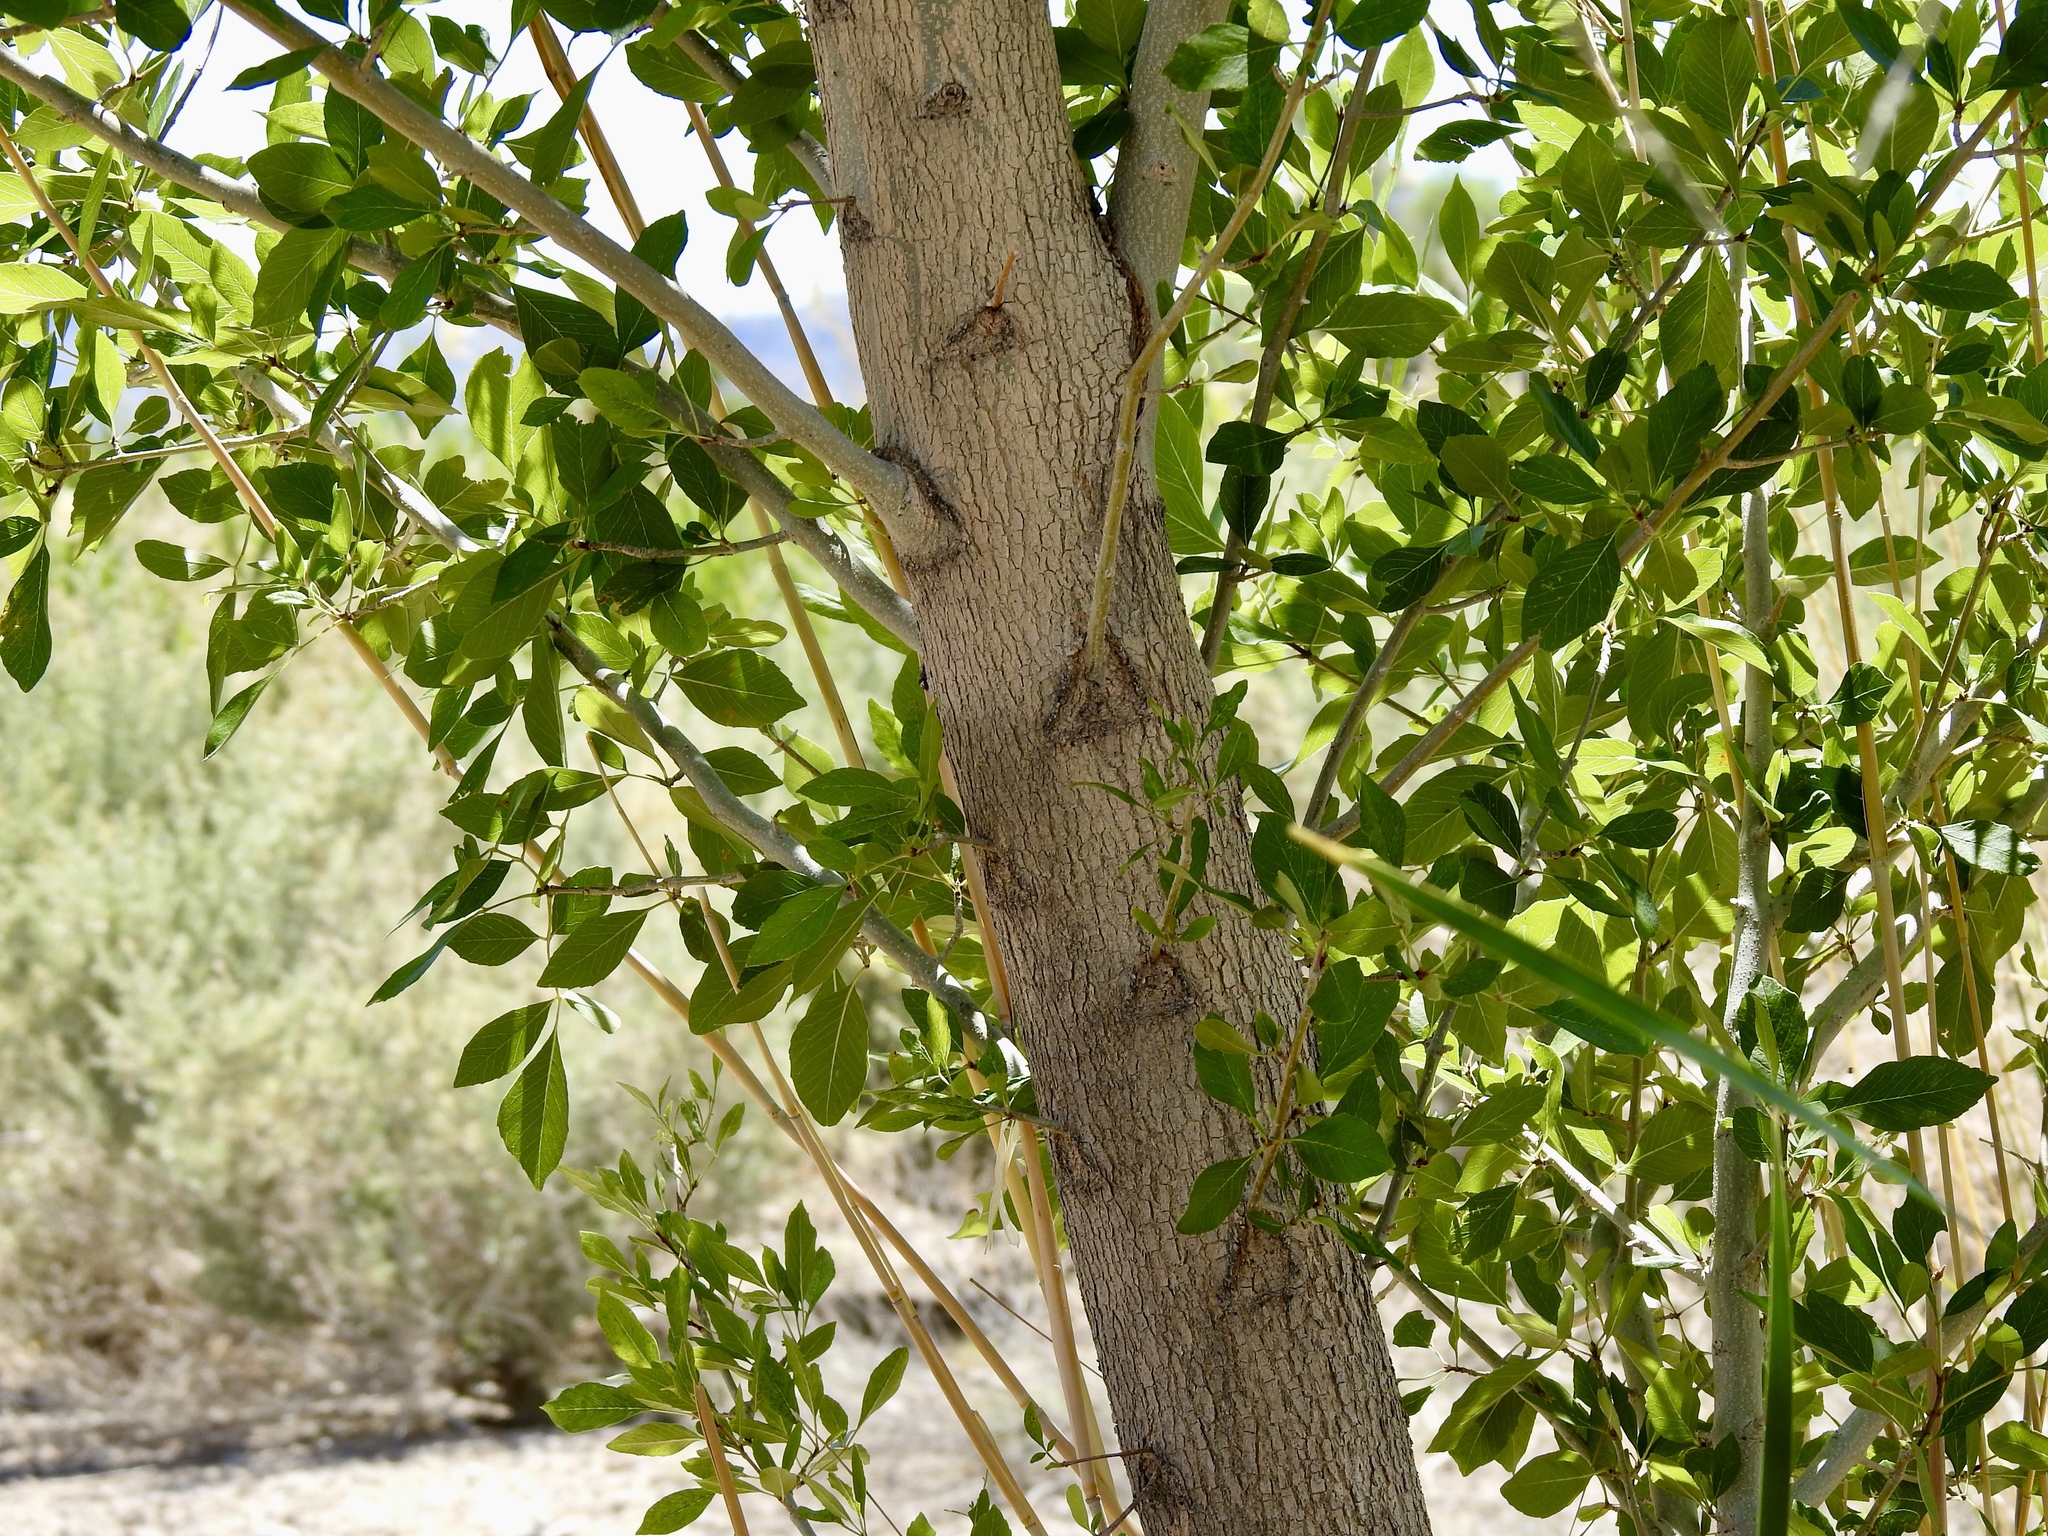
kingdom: Plantae
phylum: Tracheophyta
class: Magnoliopsida
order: Lamiales
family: Oleaceae
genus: Fraxinus
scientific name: Fraxinus velutina
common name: Arizon ash
